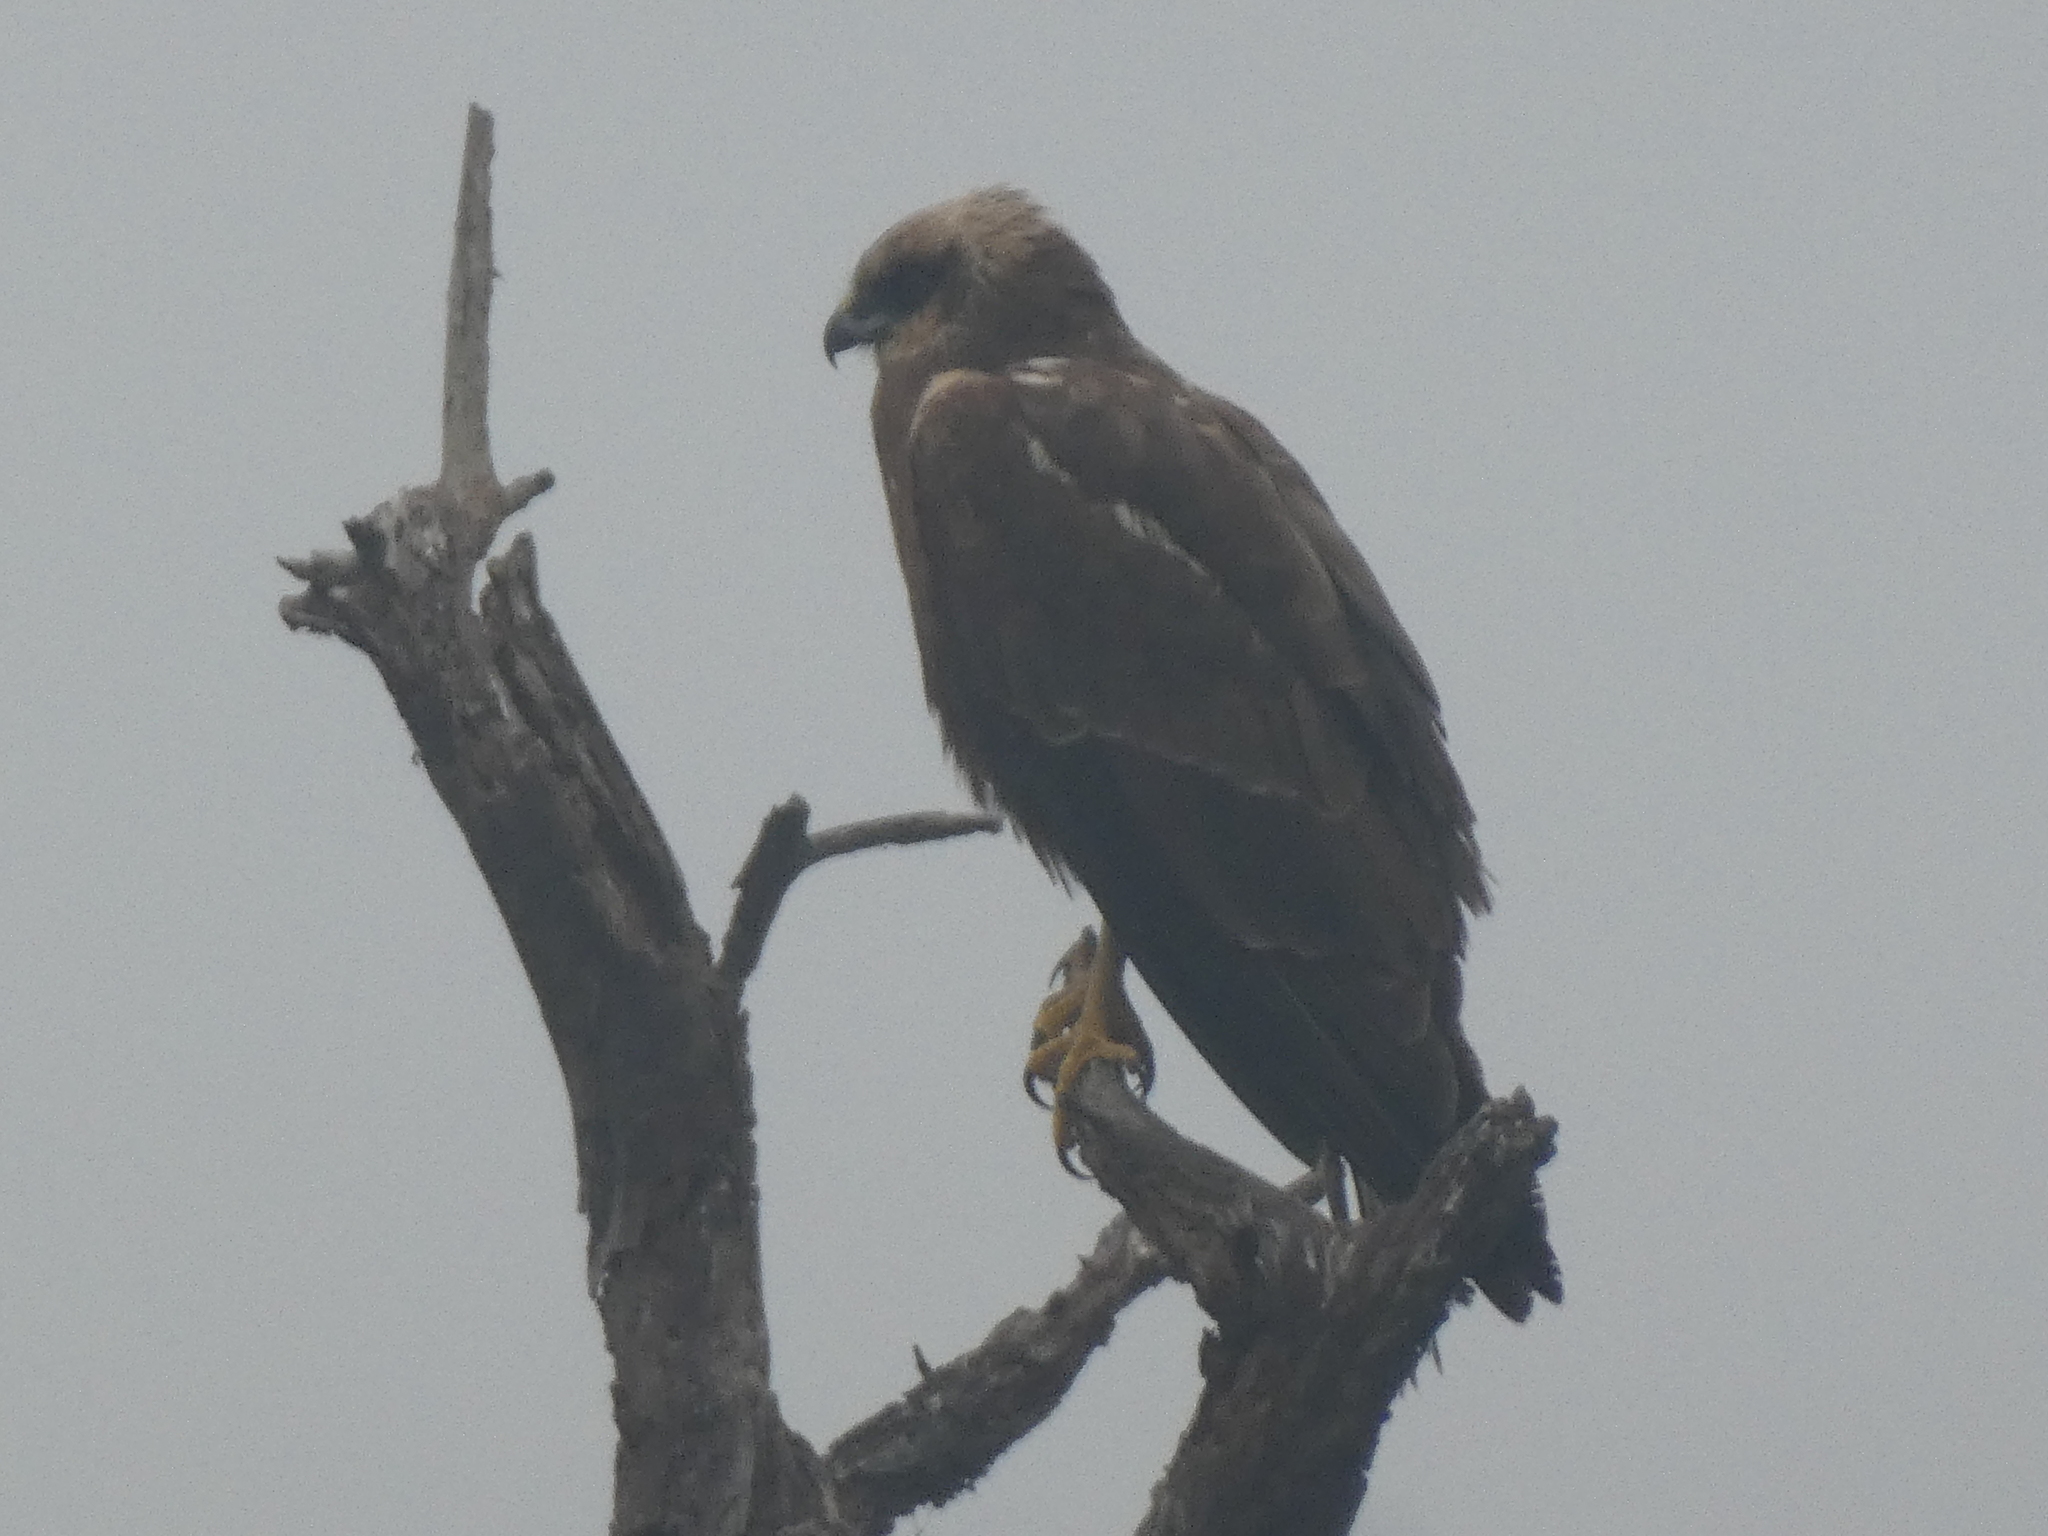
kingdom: Animalia
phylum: Chordata
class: Aves
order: Accipitriformes
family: Accipitridae
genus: Circus
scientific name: Circus aeruginosus
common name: Western marsh harrier
